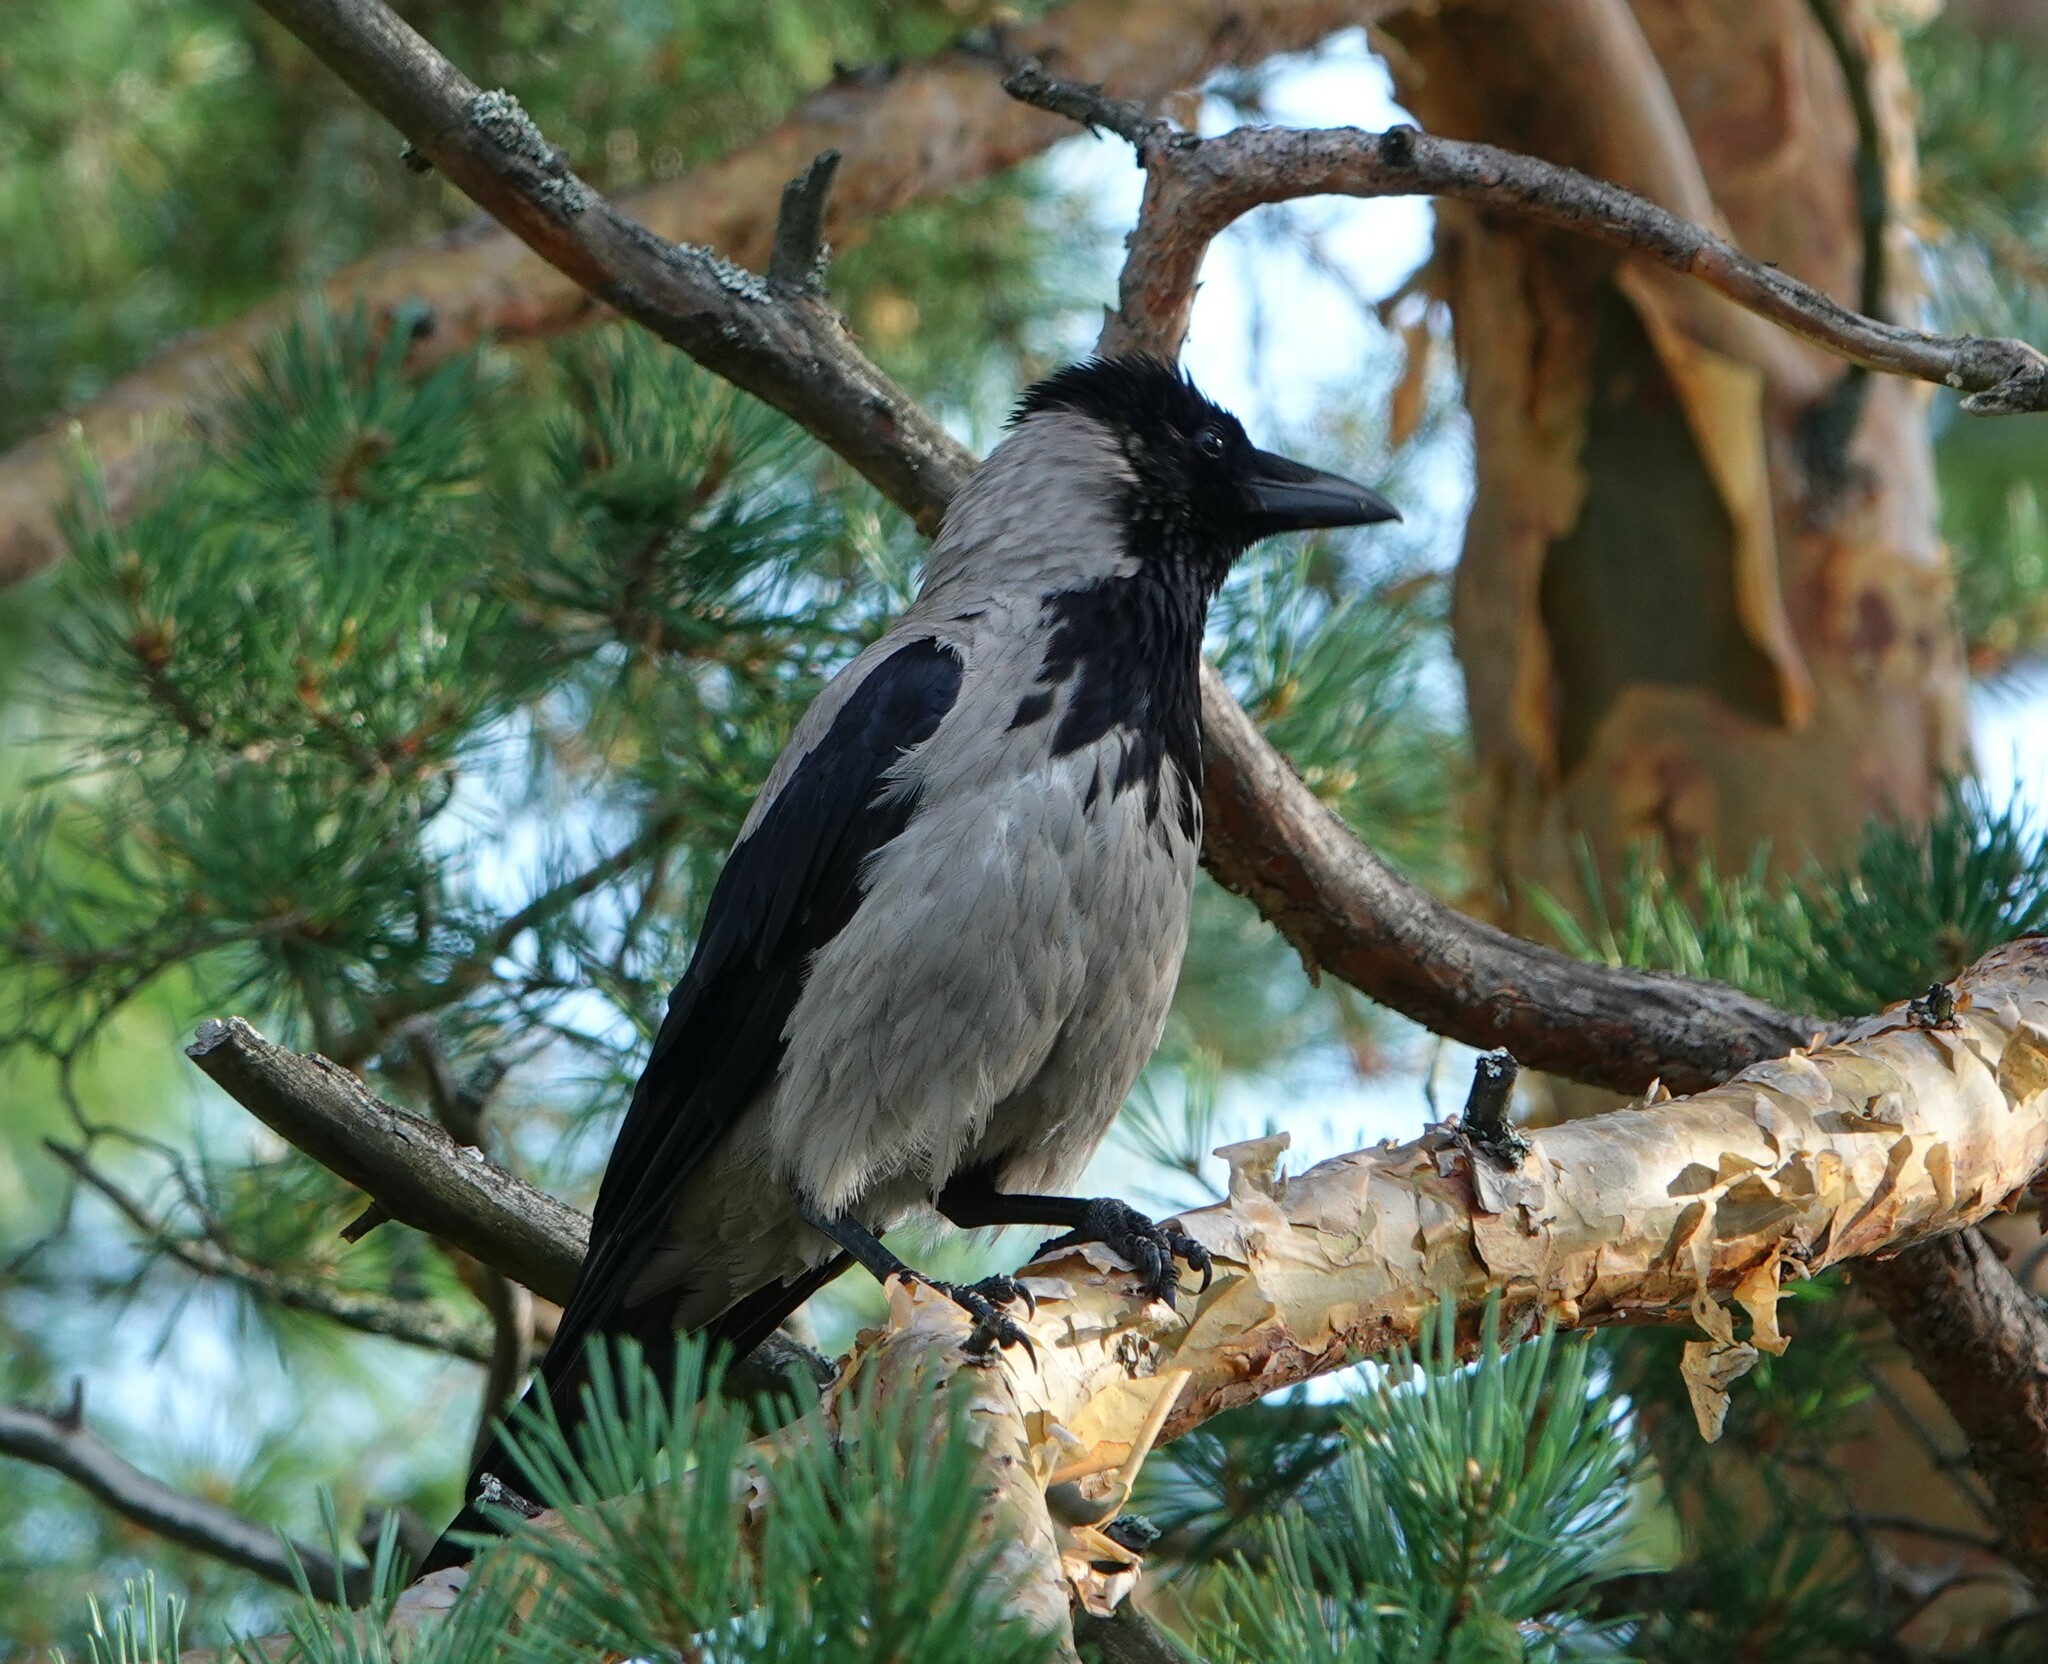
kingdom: Animalia
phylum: Chordata
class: Aves
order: Passeriformes
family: Corvidae
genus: Corvus
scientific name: Corvus cornix
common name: Hooded crow
